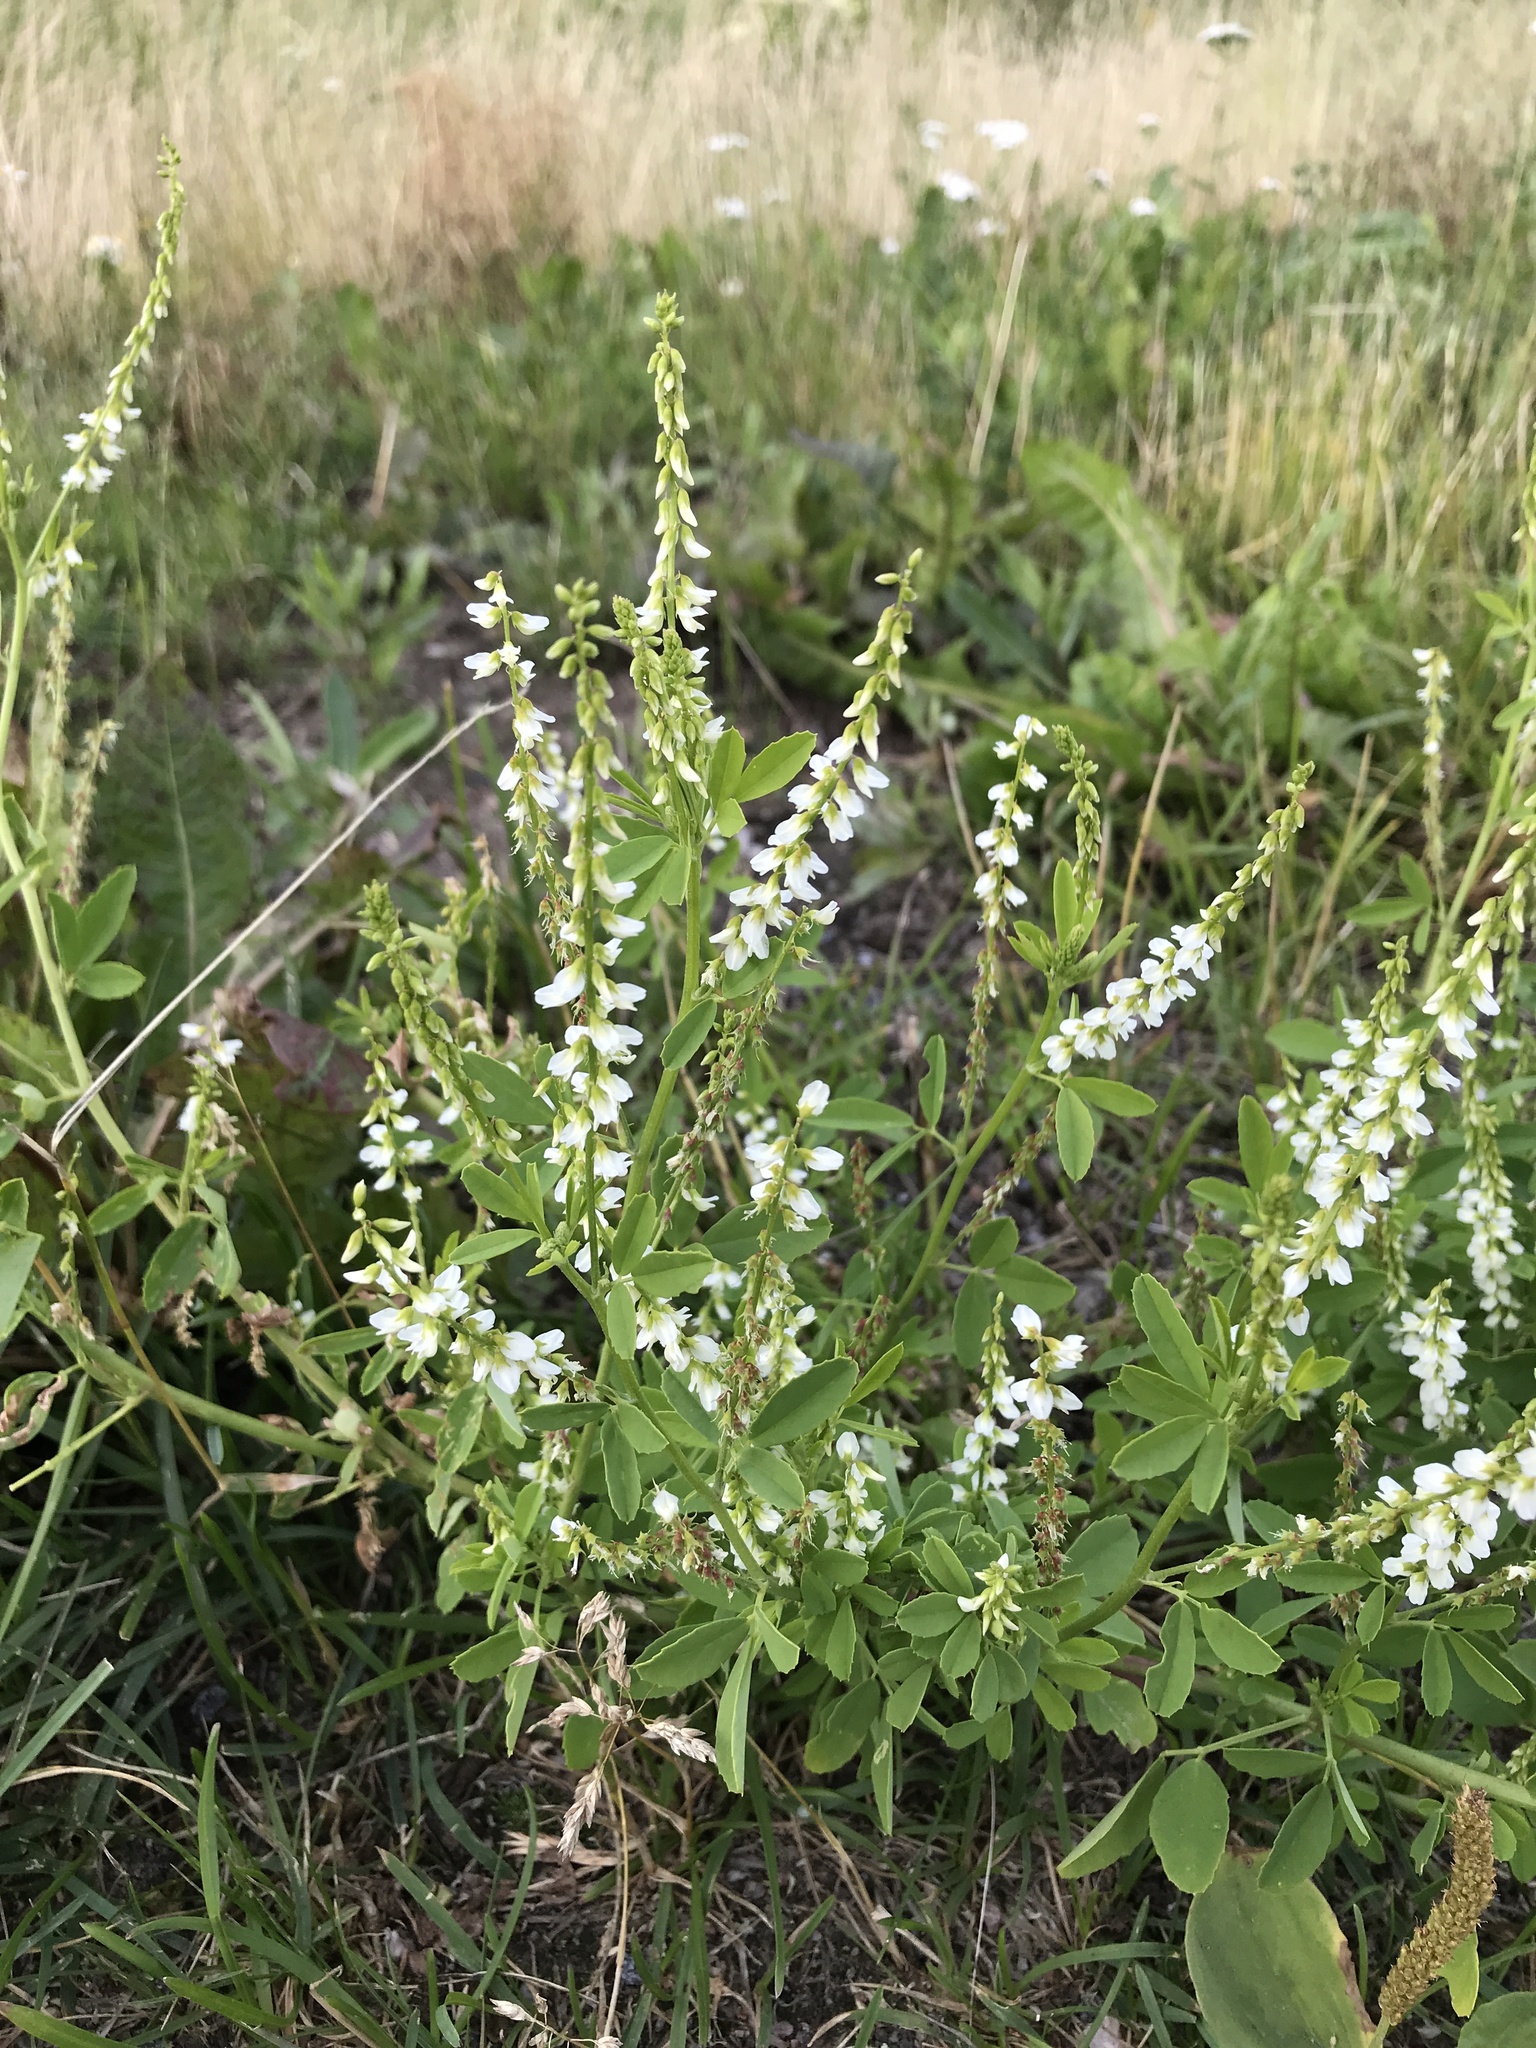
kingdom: Plantae
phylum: Tracheophyta
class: Magnoliopsida
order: Fabales
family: Fabaceae
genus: Melilotus
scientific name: Melilotus albus
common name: White melilot
